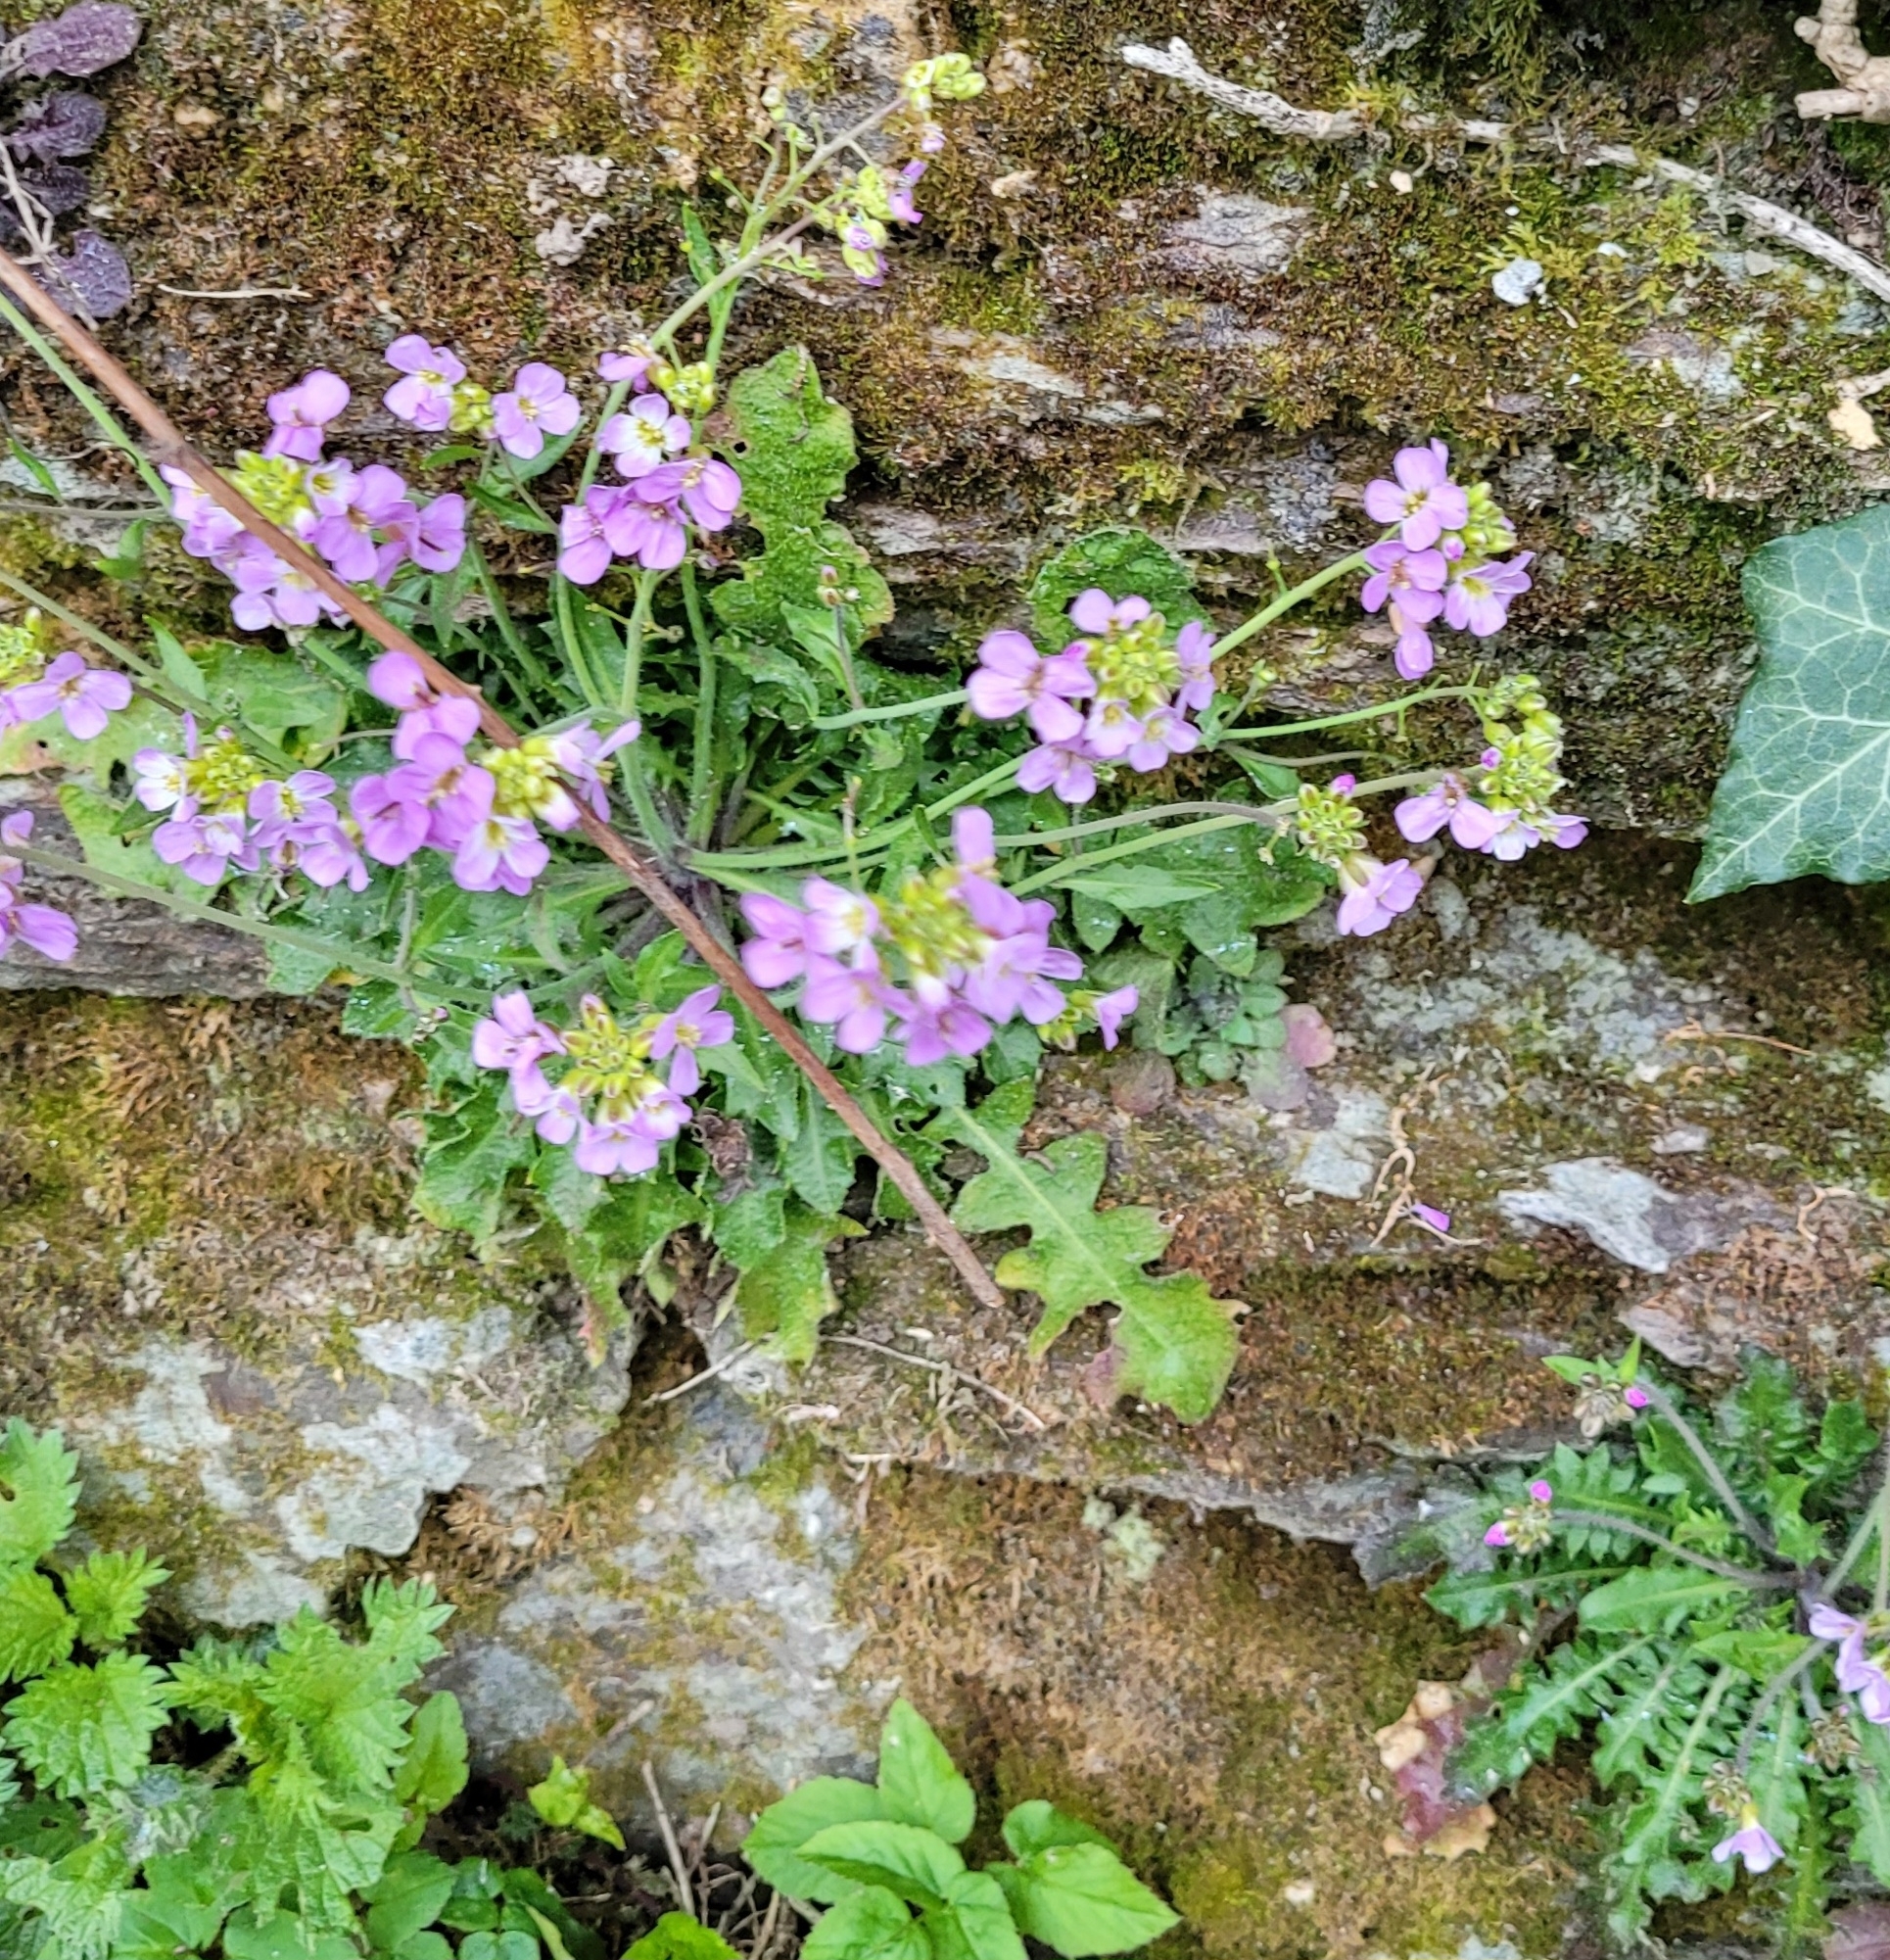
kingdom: Plantae
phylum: Tracheophyta
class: Magnoliopsida
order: Brassicales
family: Brassicaceae
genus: Arabidopsis
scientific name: Arabidopsis arenosa
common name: Sand rock-cress
